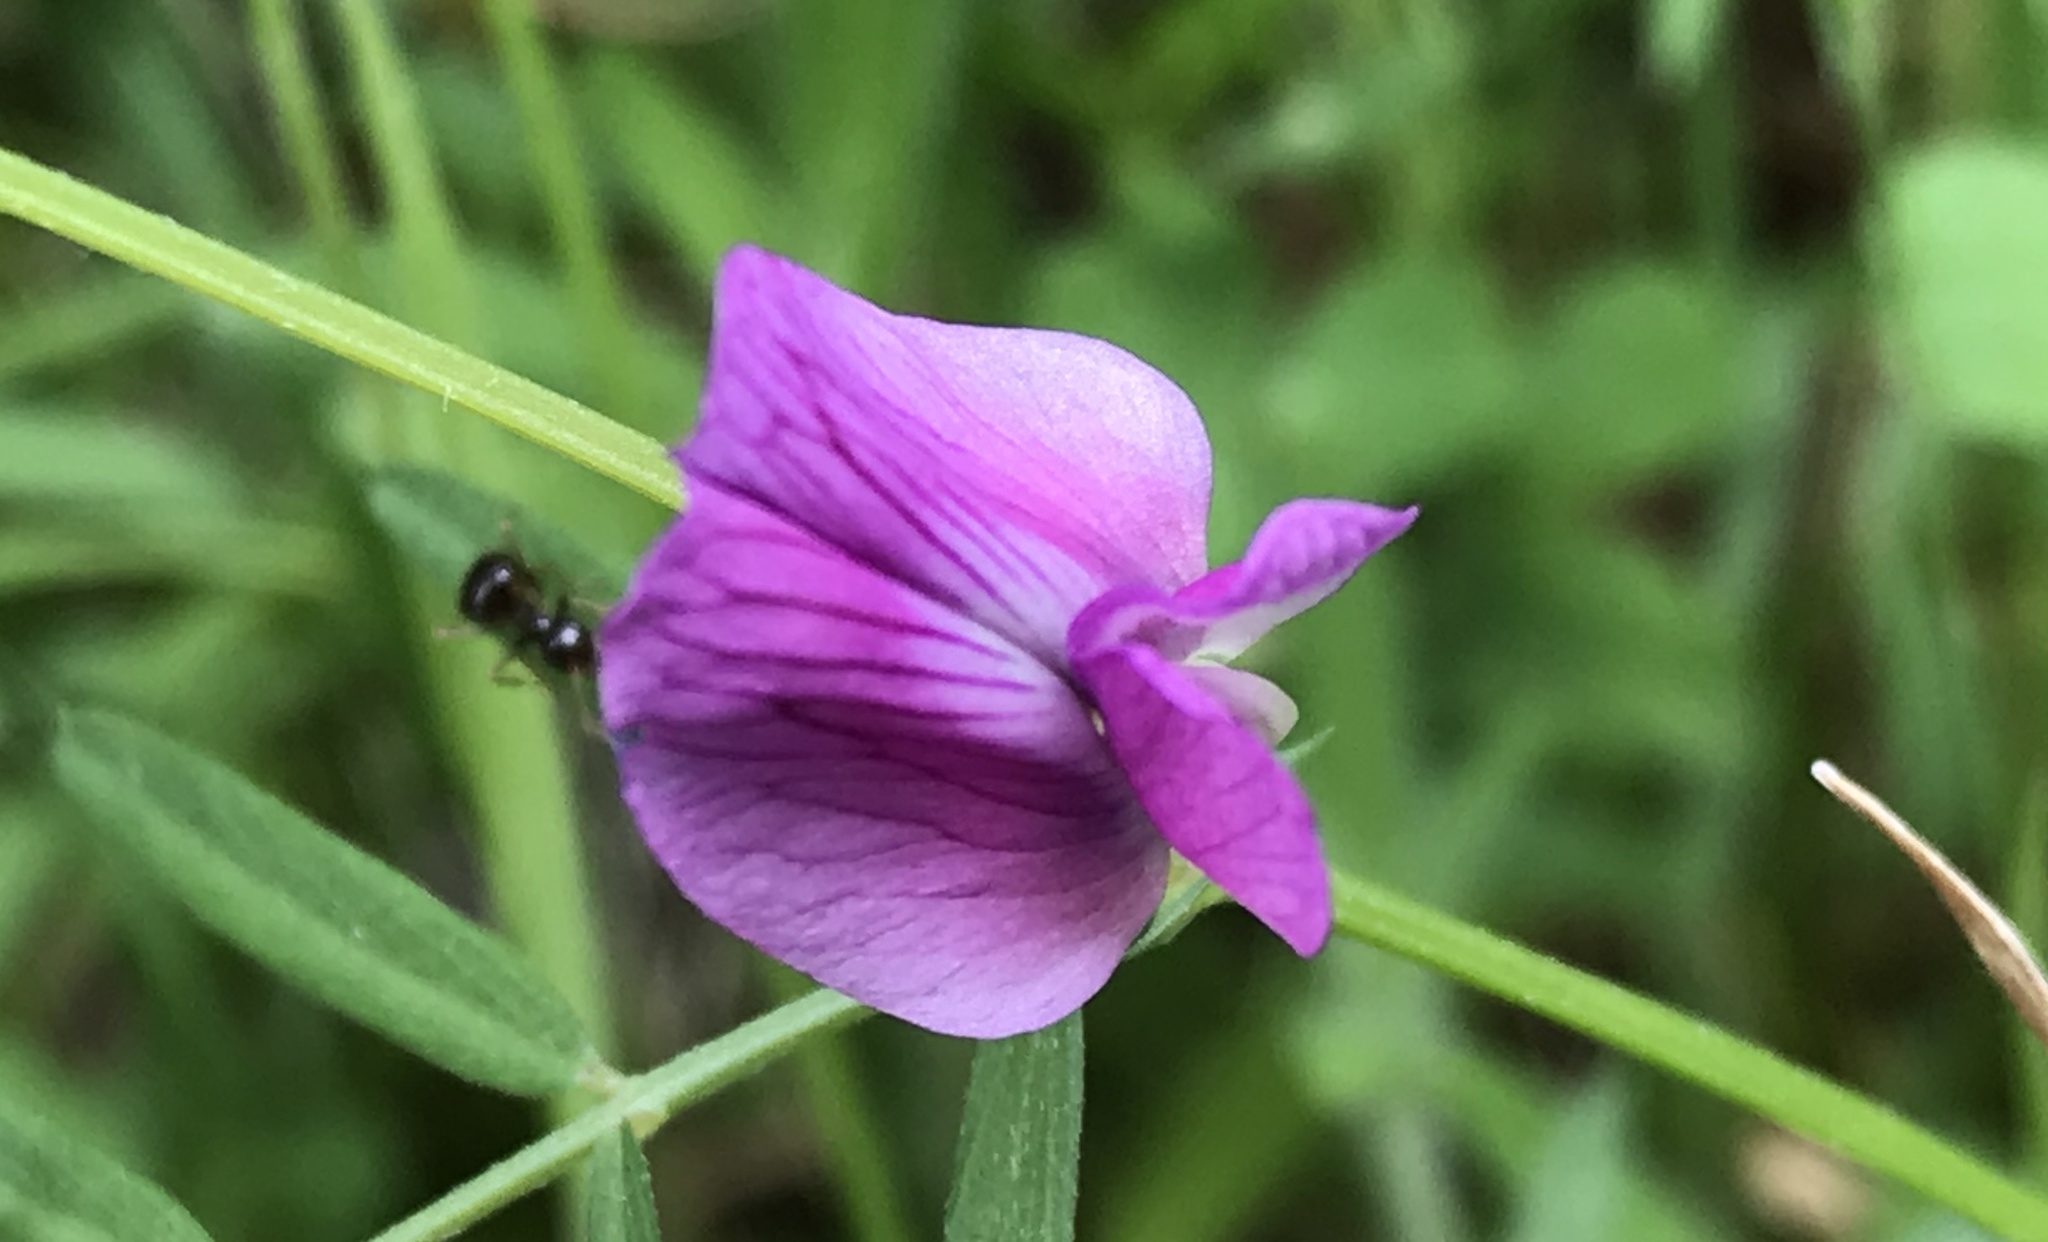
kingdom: Plantae
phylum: Tracheophyta
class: Magnoliopsida
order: Fabales
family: Fabaceae
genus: Vicia
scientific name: Vicia sativa
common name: Garden vetch
